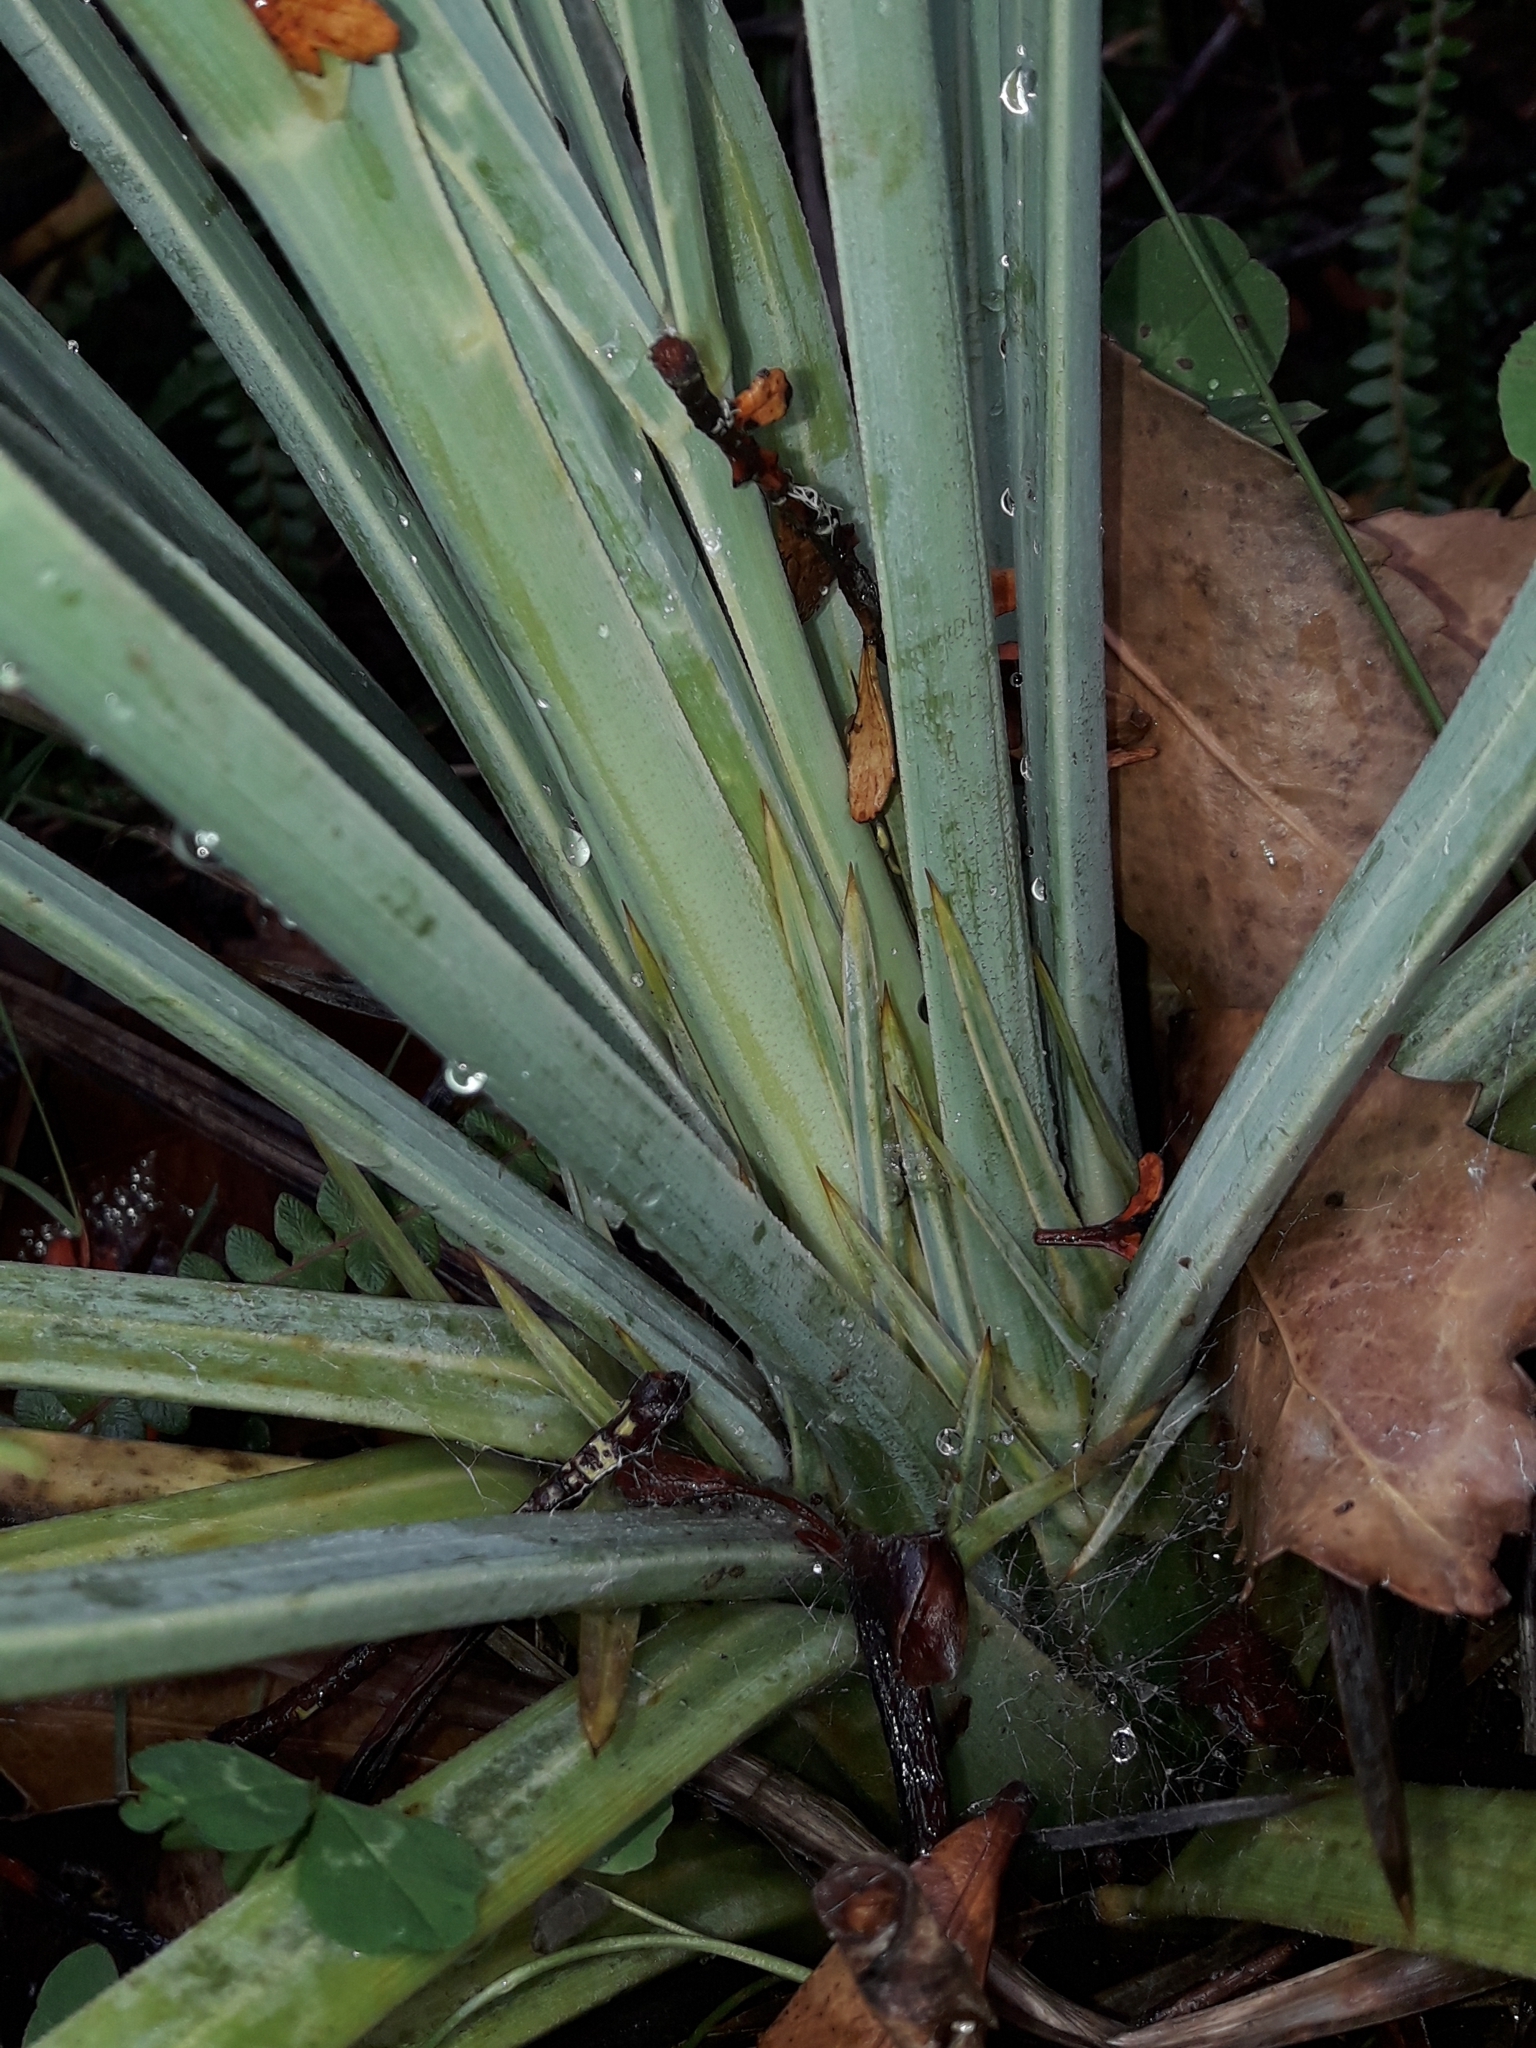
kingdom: Plantae
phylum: Tracheophyta
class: Magnoliopsida
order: Apiales
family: Apiaceae
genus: Aciphylla
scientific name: Aciphylla scott-thomsonii
